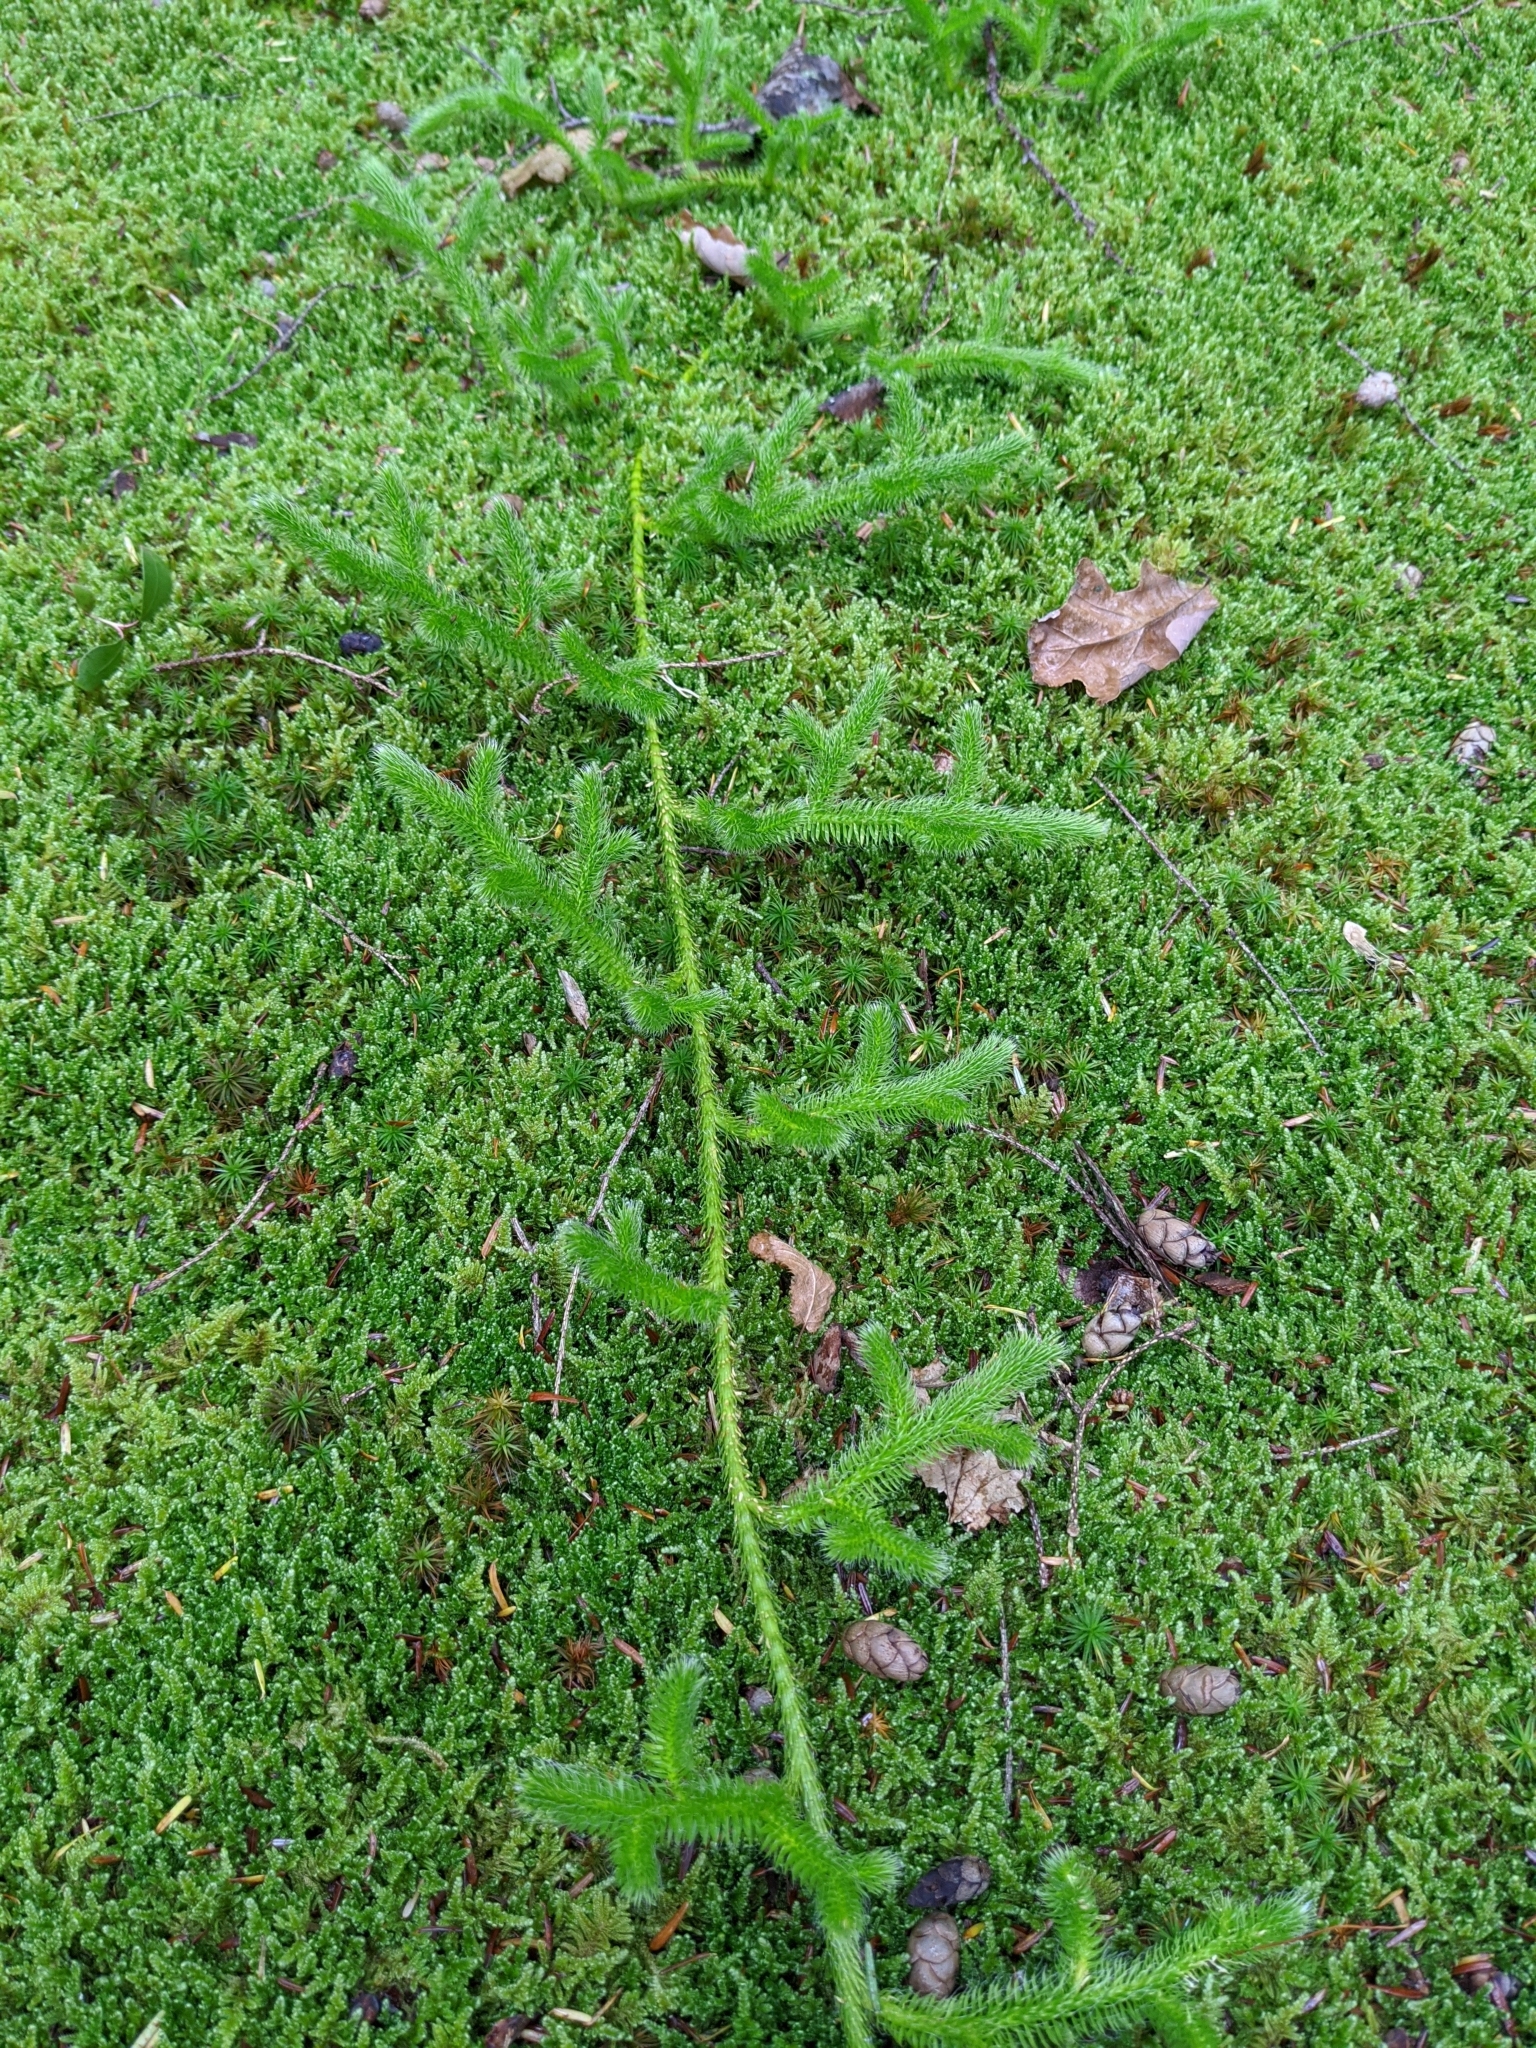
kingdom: Plantae
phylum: Tracheophyta
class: Lycopodiopsida
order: Lycopodiales
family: Lycopodiaceae
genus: Lycopodium
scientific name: Lycopodium clavatum
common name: Stag's-horn clubmoss
